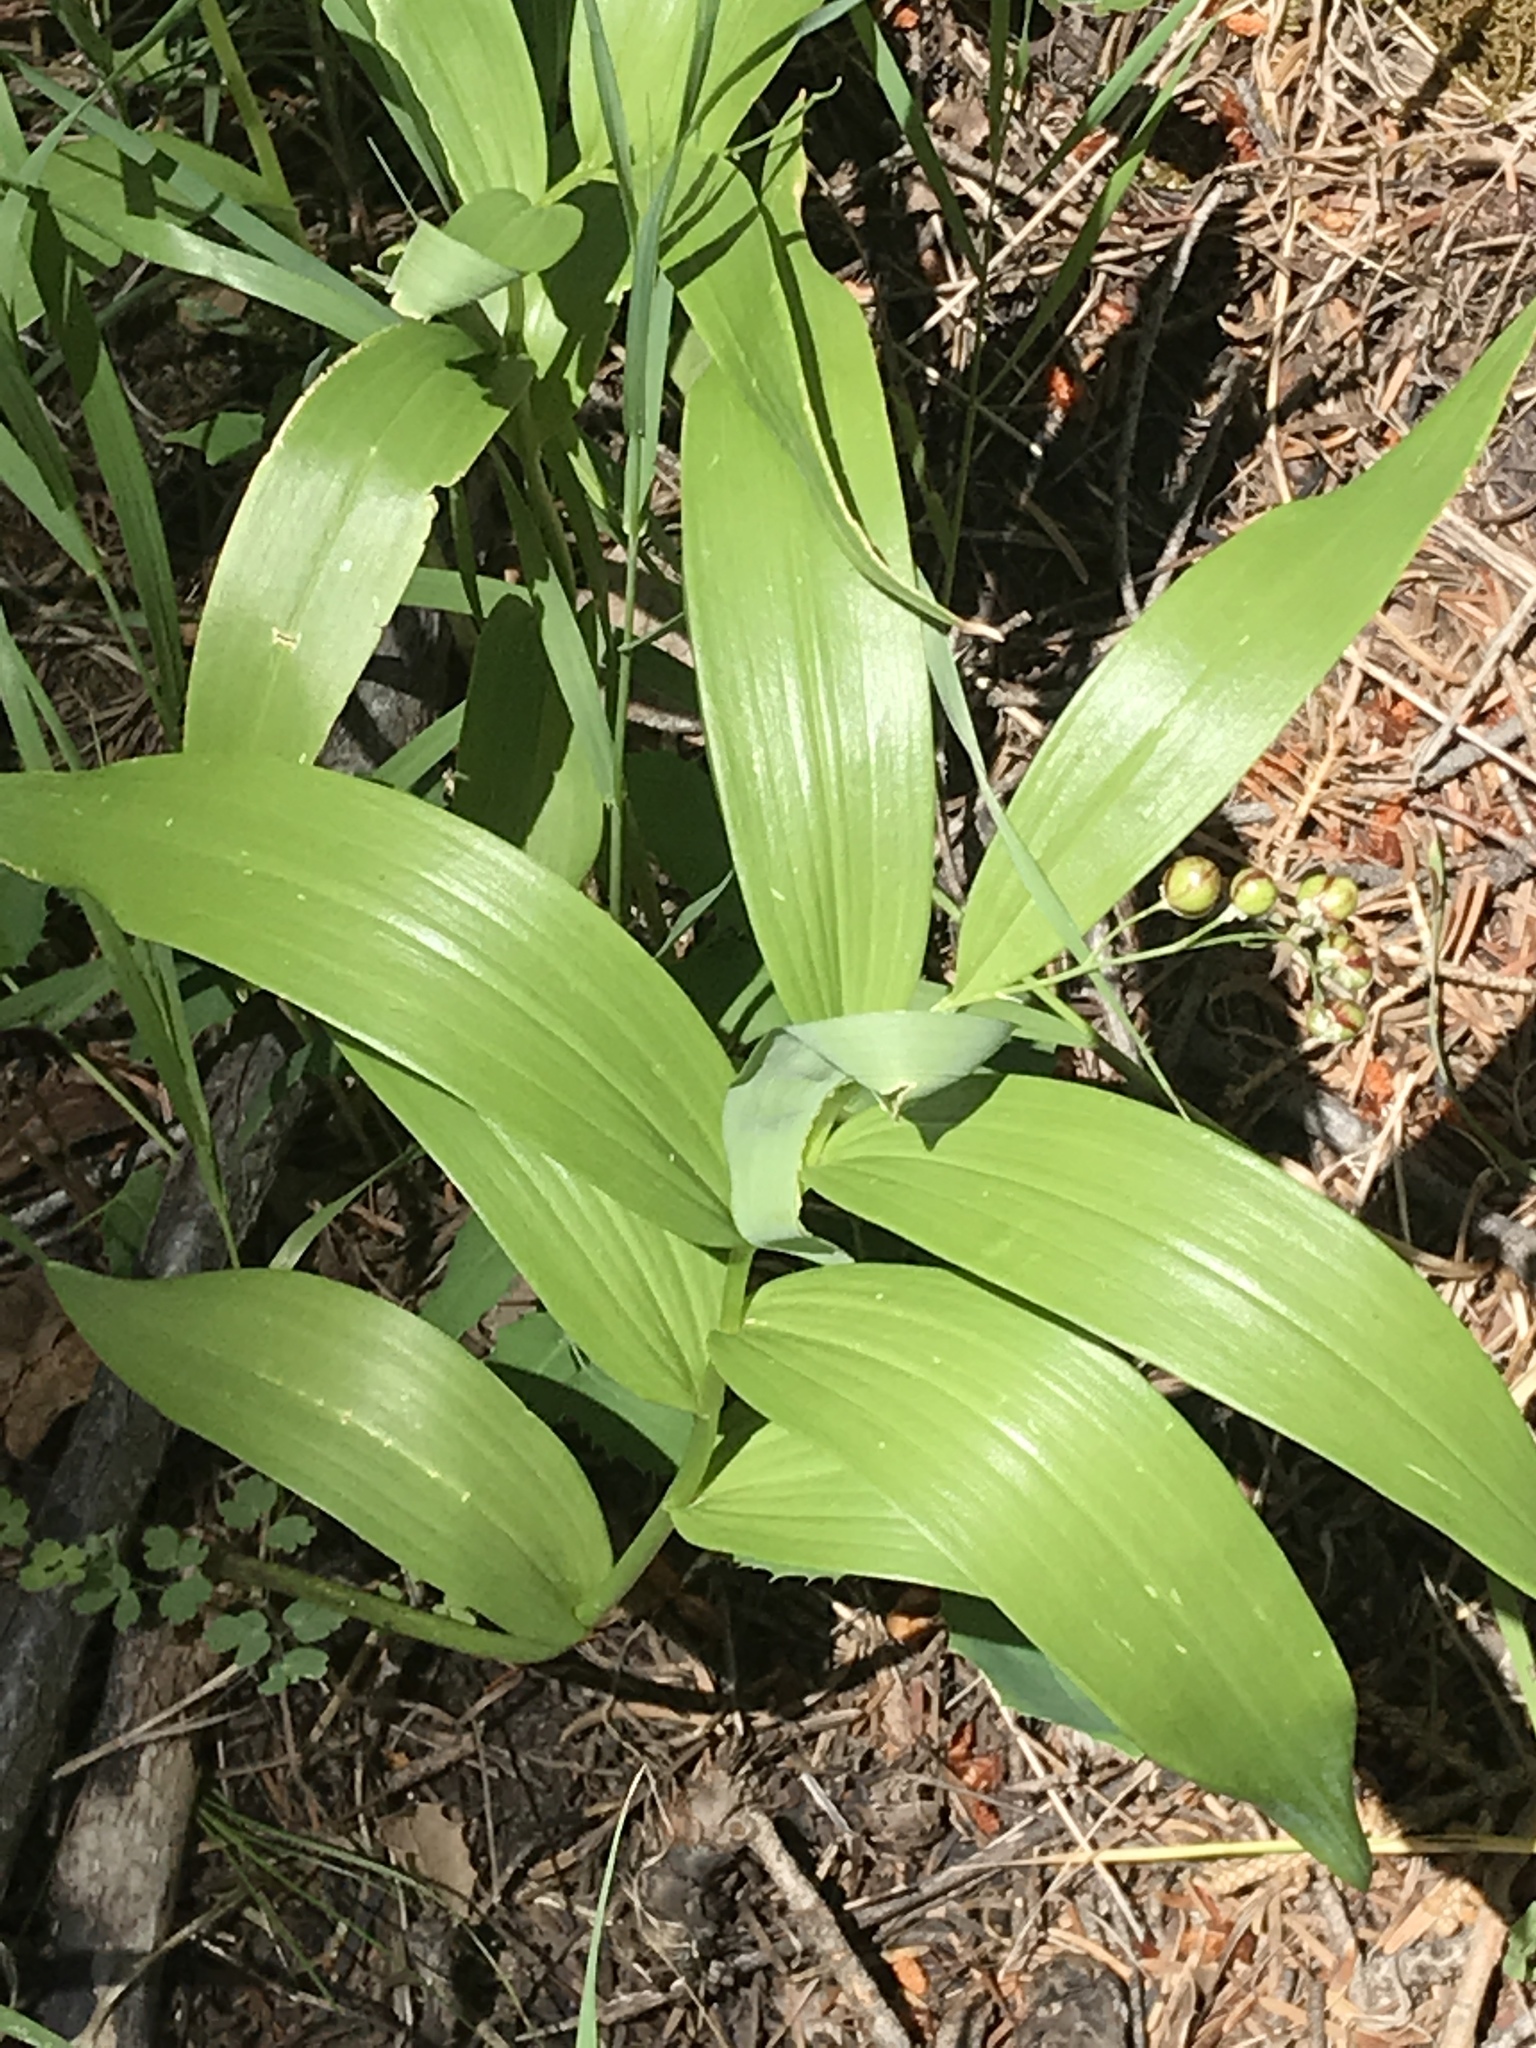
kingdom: Plantae
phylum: Tracheophyta
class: Liliopsida
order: Asparagales
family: Asparagaceae
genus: Maianthemum
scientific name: Maianthemum stellatum
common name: Little false solomon's seal
